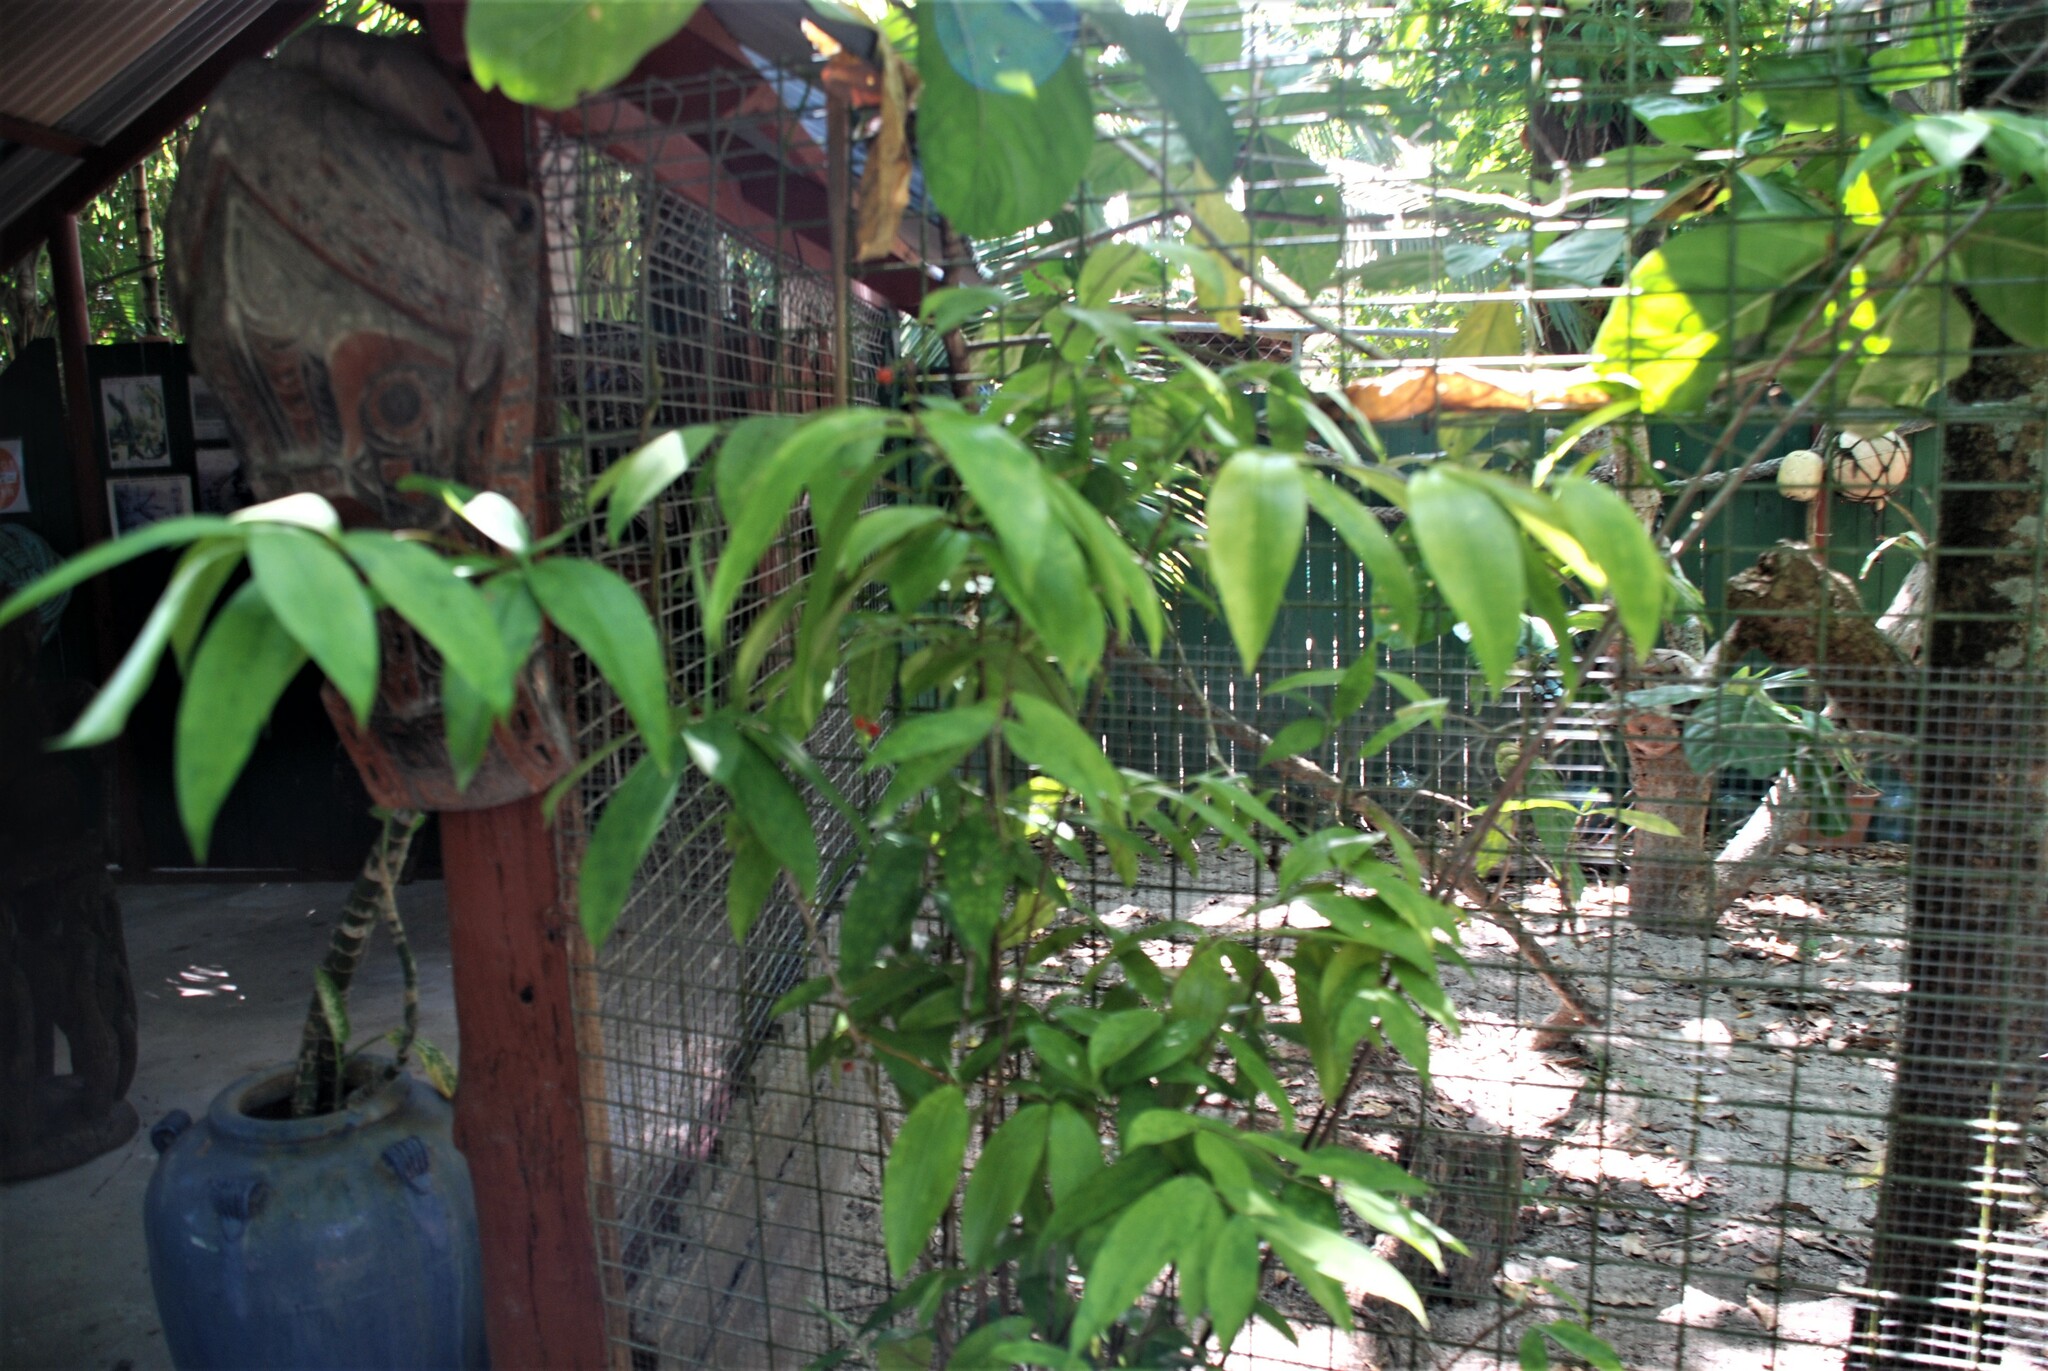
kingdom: Plantae
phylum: Tracheophyta
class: Liliopsida
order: Asparagales
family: Asparagaceae
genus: Dracaena
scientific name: Dracaena surculosa
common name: Spotted dracaena
